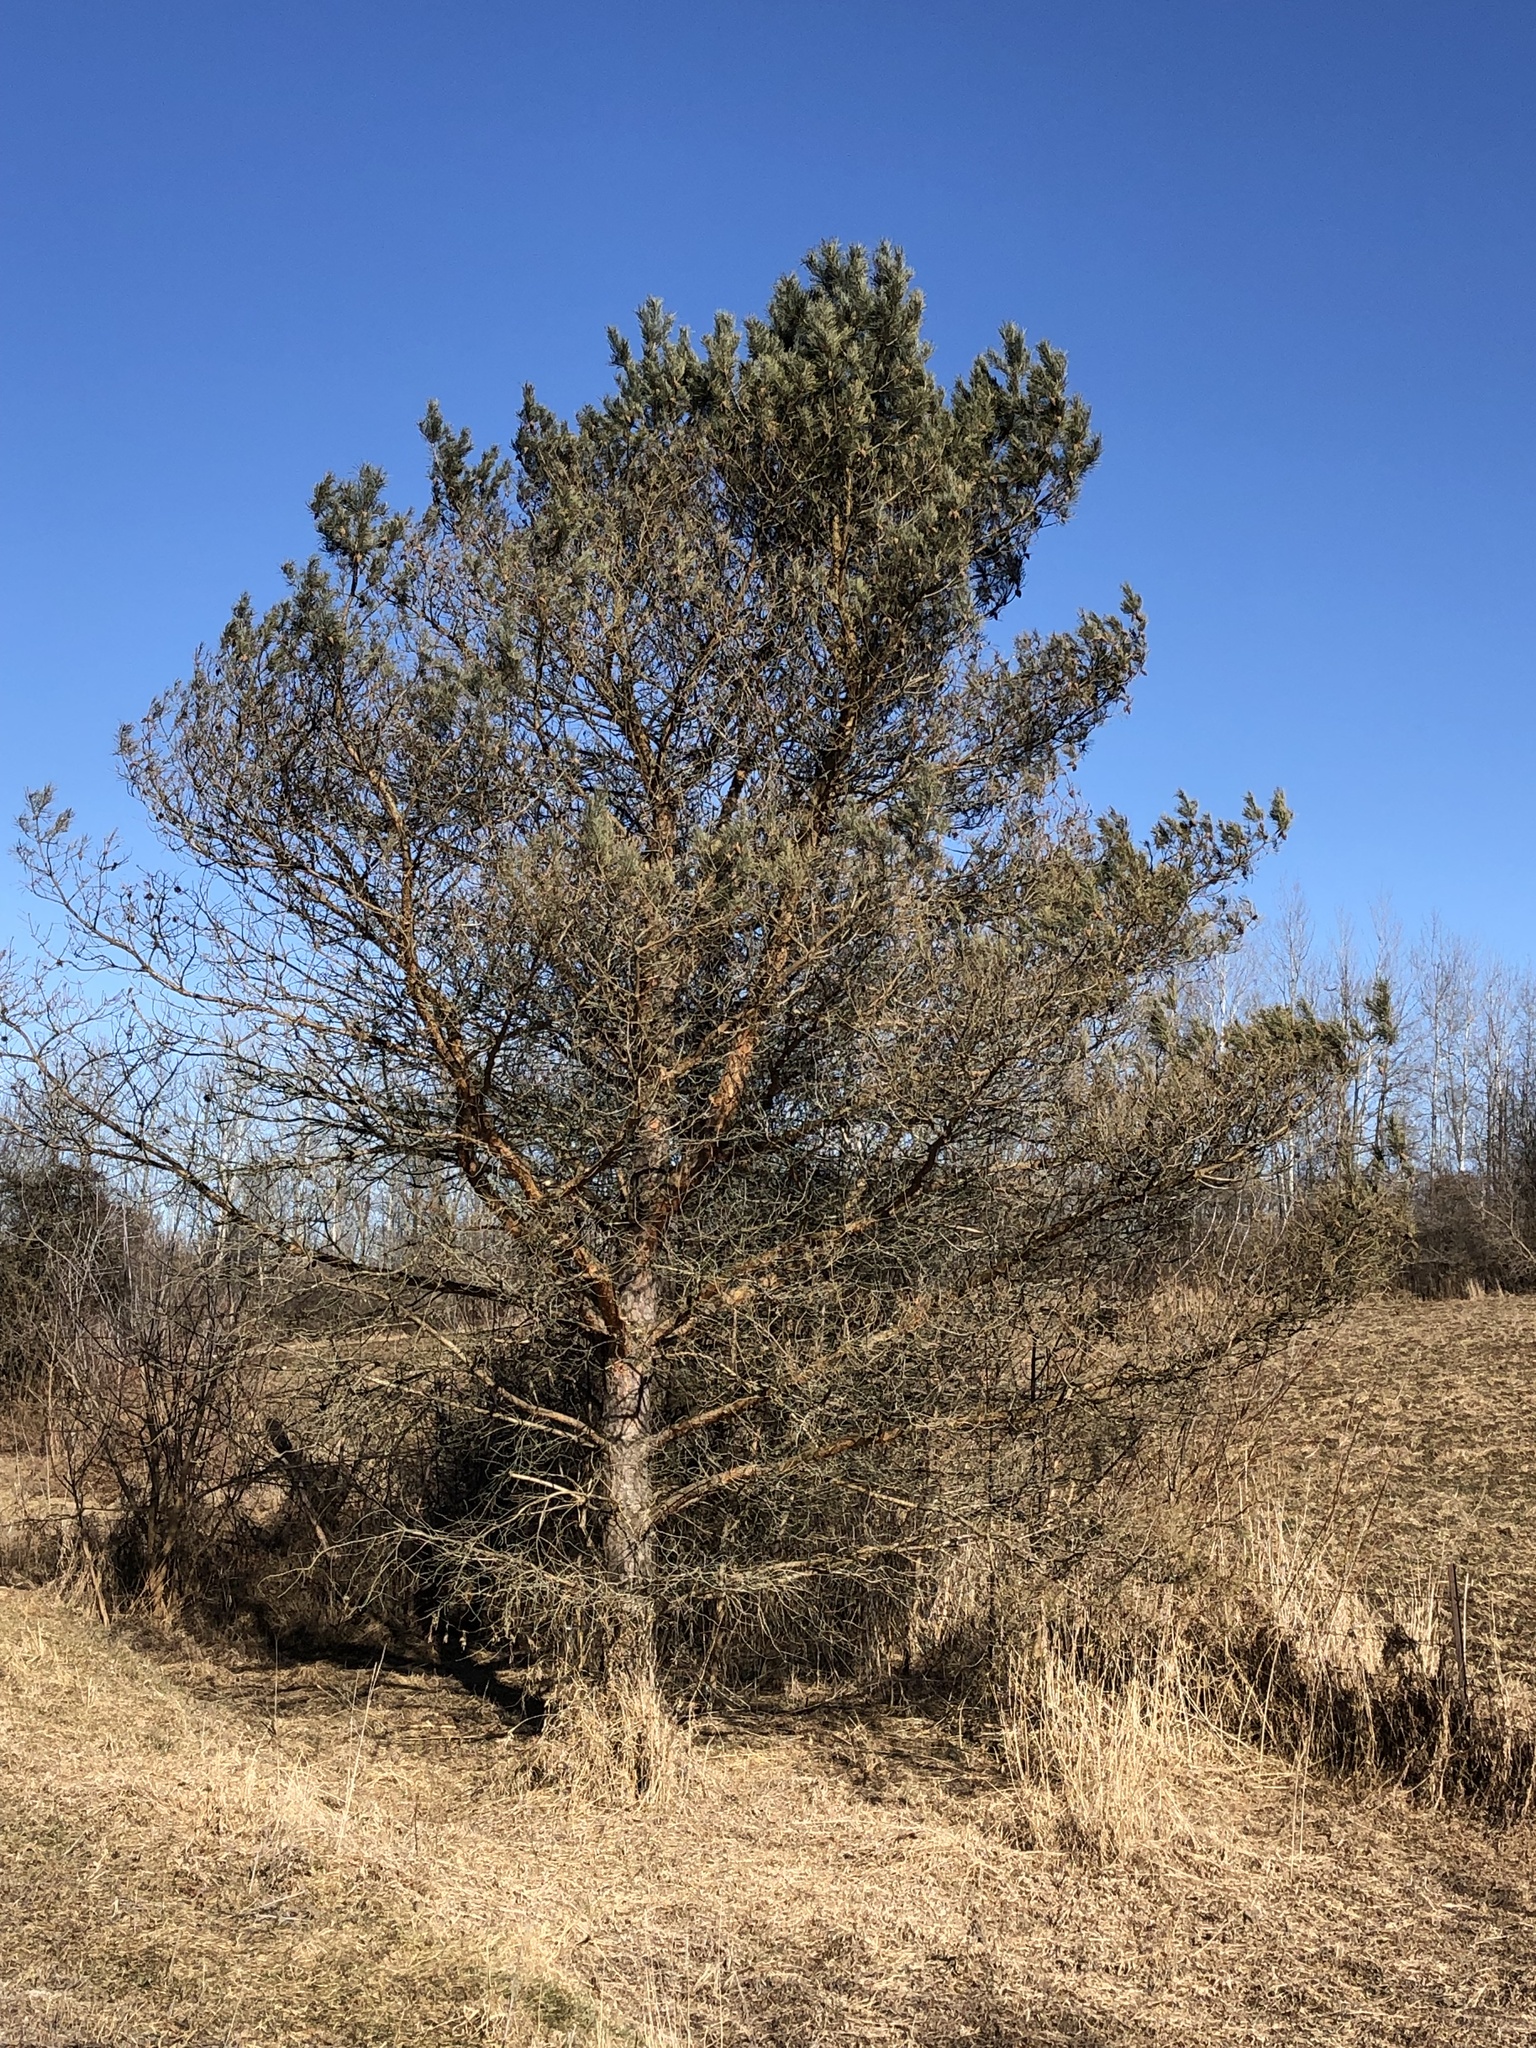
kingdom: Plantae
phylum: Tracheophyta
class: Pinopsida
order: Pinales
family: Pinaceae
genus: Pinus
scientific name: Pinus sylvestris
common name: Scots pine
